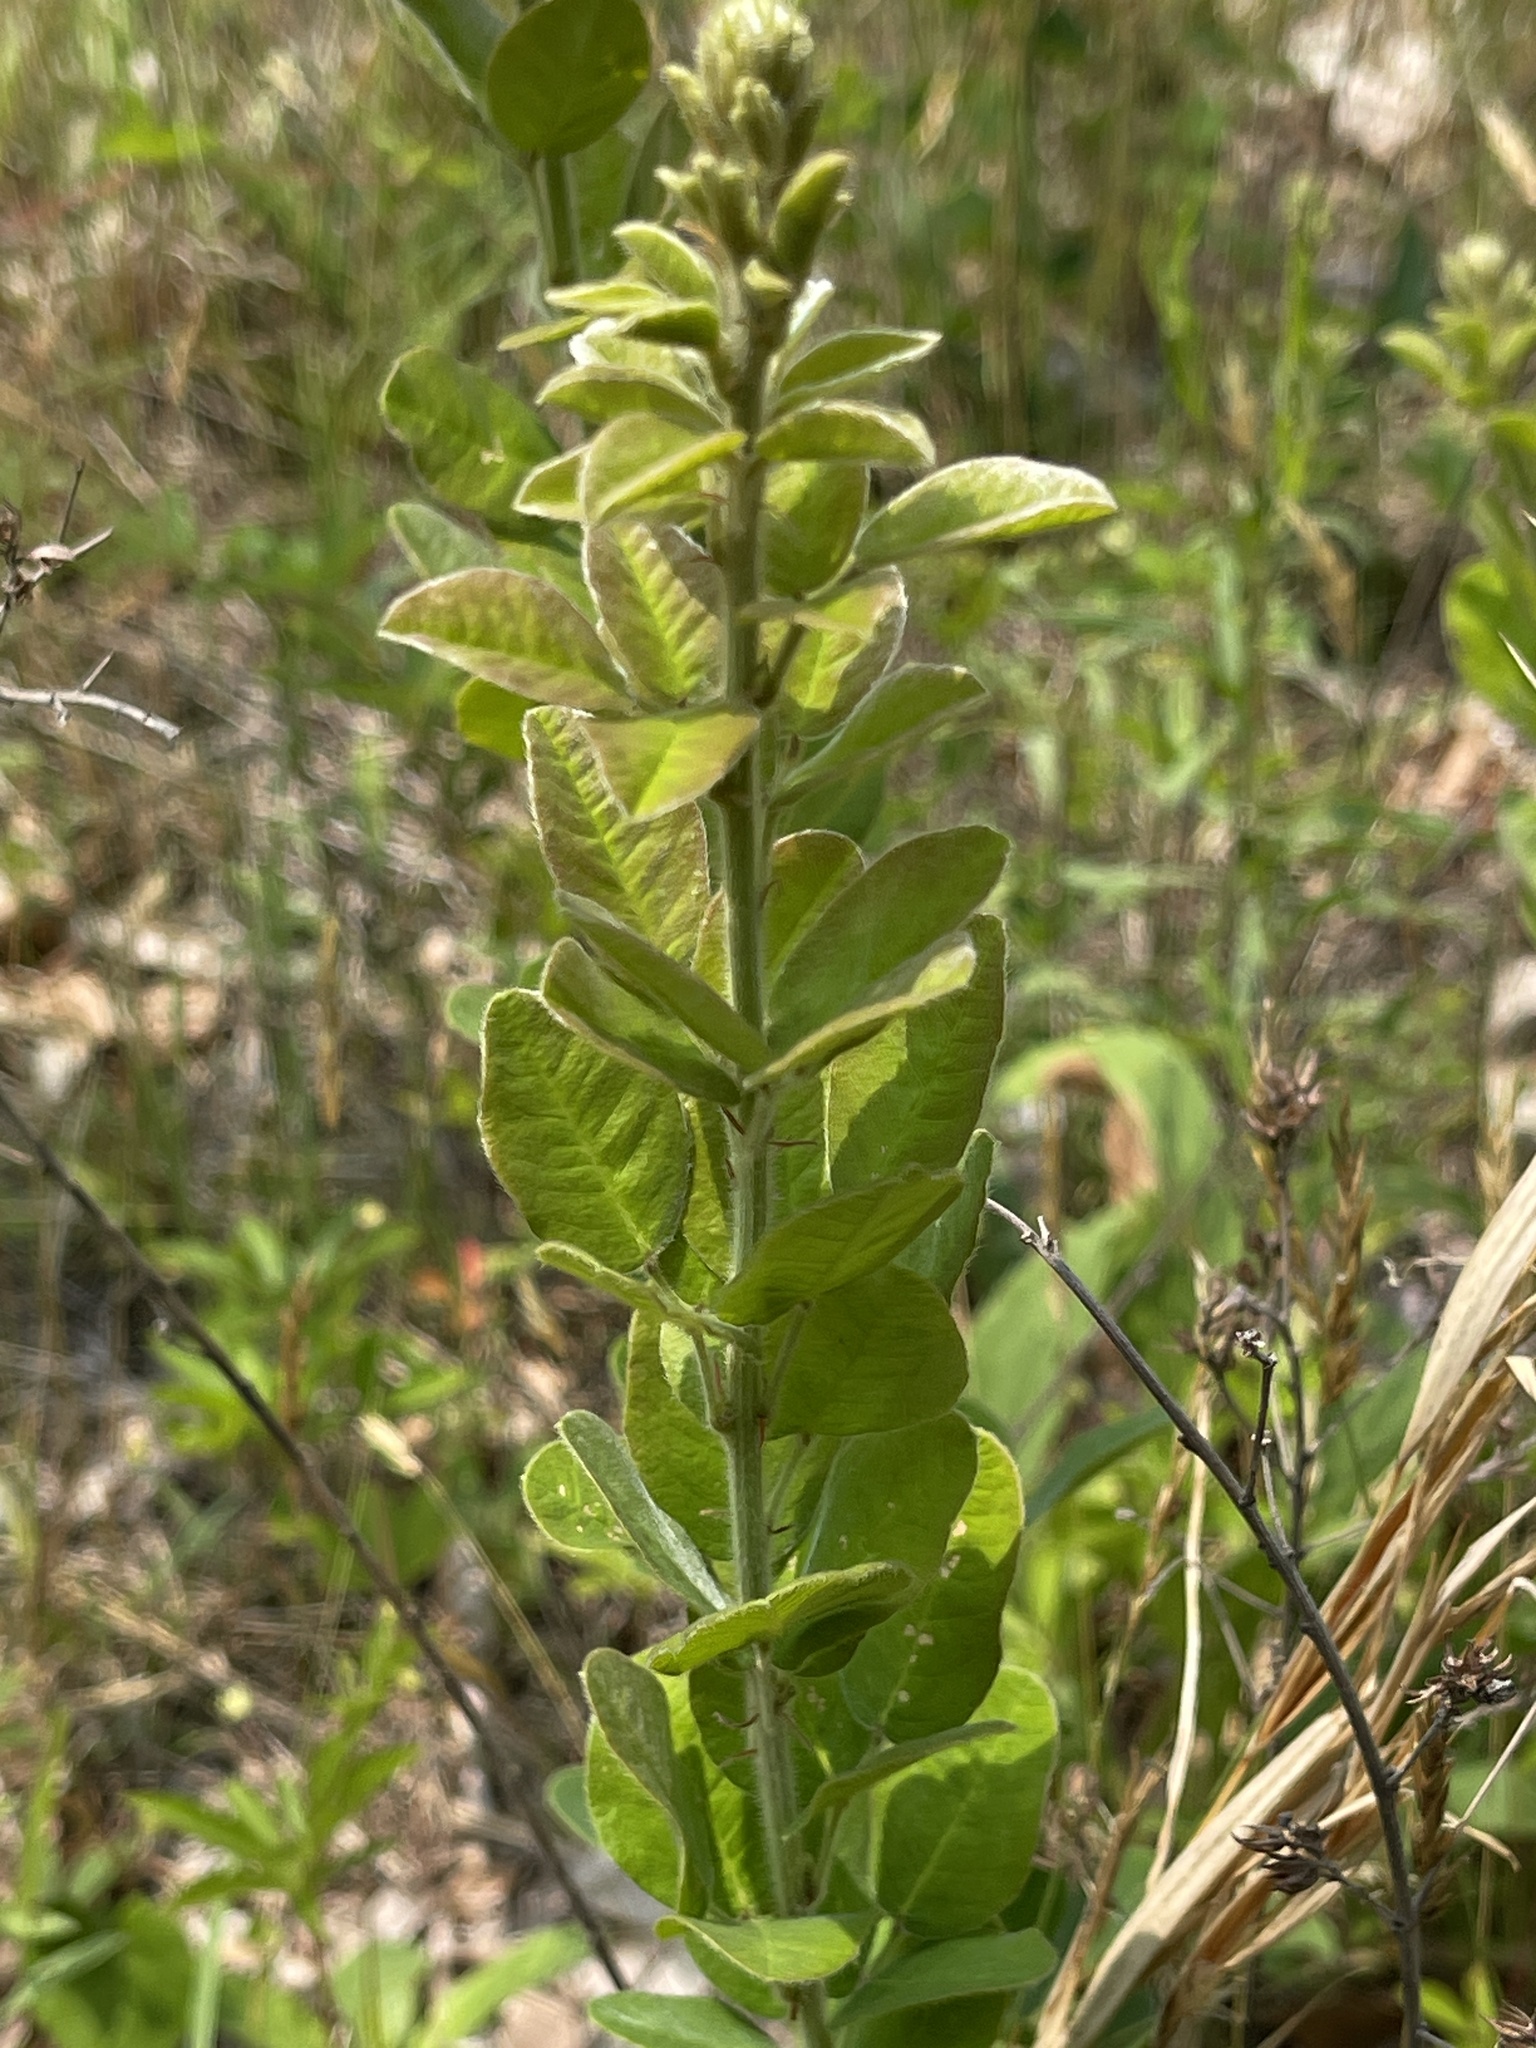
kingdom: Plantae
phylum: Tracheophyta
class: Magnoliopsida
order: Fabales
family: Fabaceae
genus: Lespedeza
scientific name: Lespedeza hirta
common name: Hairy lespedeza
